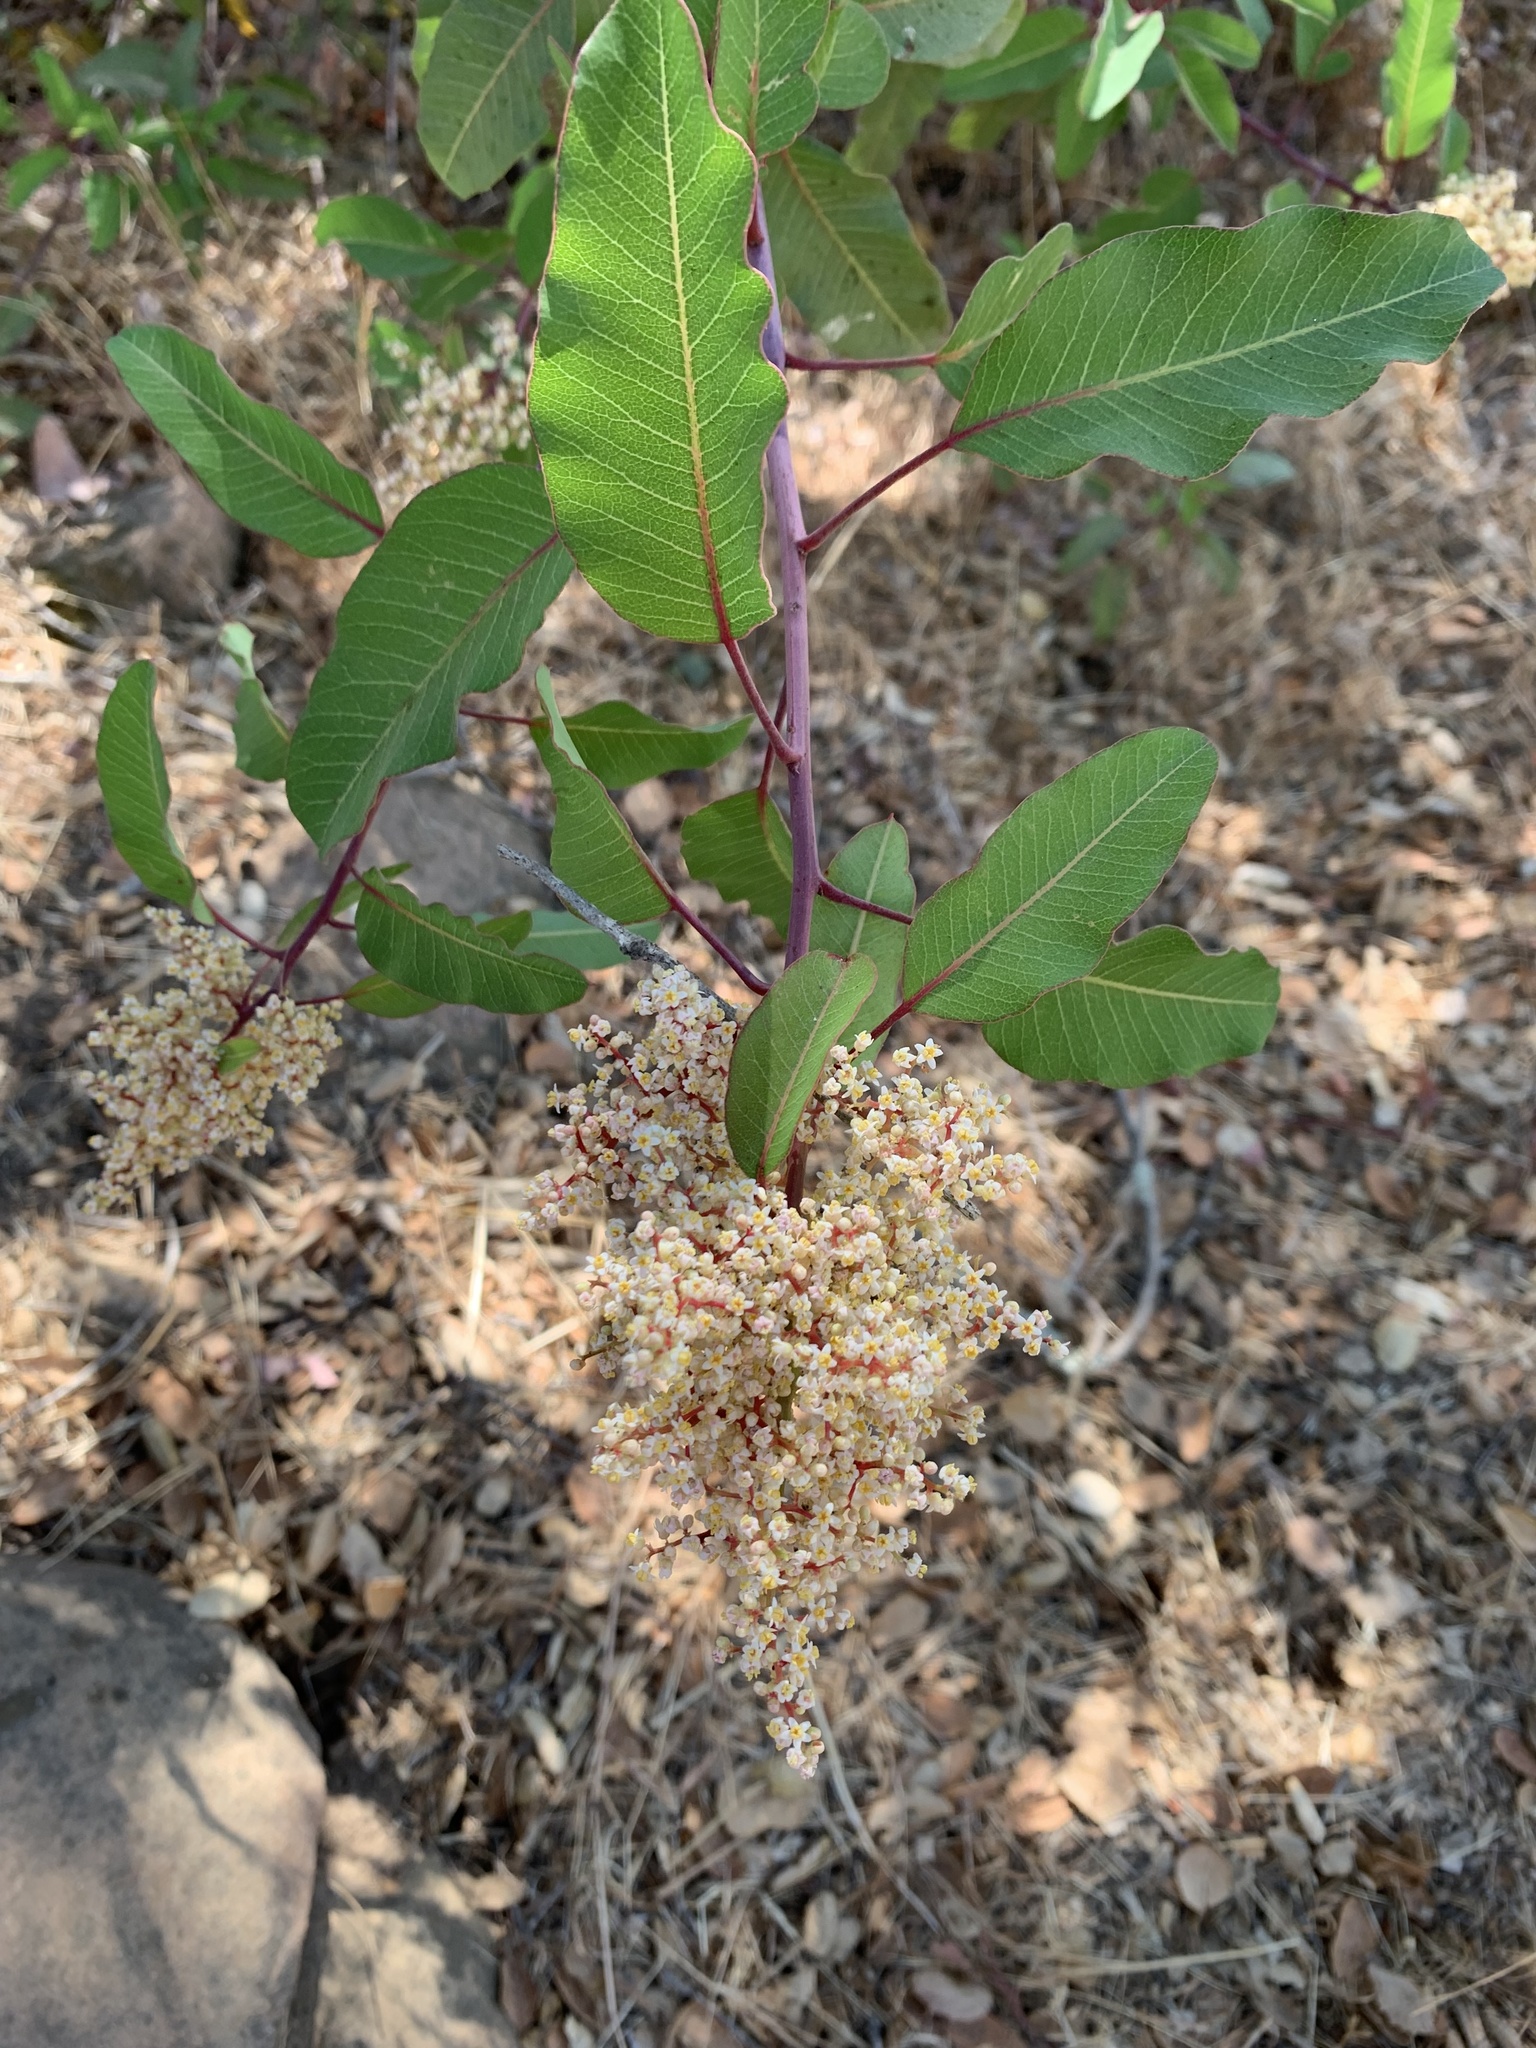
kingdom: Plantae
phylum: Tracheophyta
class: Magnoliopsida
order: Sapindales
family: Anacardiaceae
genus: Malosma
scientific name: Malosma laurina
